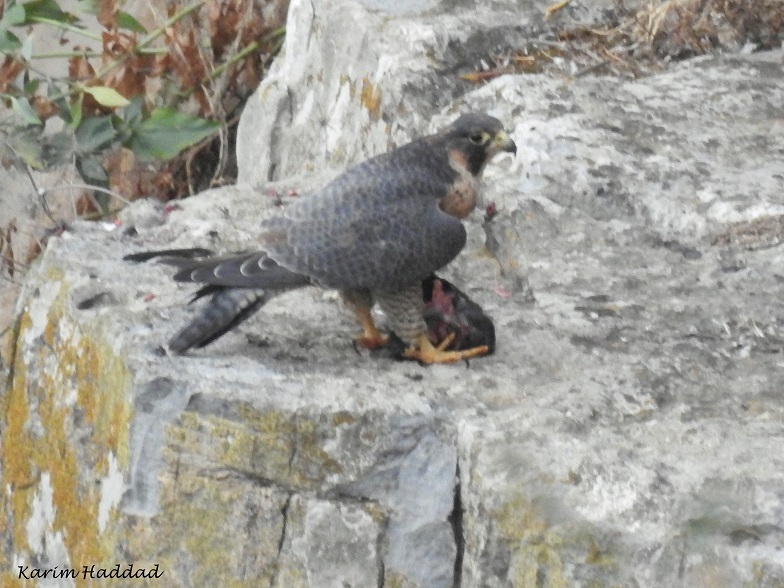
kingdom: Animalia
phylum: Chordata
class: Aves
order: Falconiformes
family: Falconidae
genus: Falco
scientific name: Falco peregrinus
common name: Peregrine falcon
